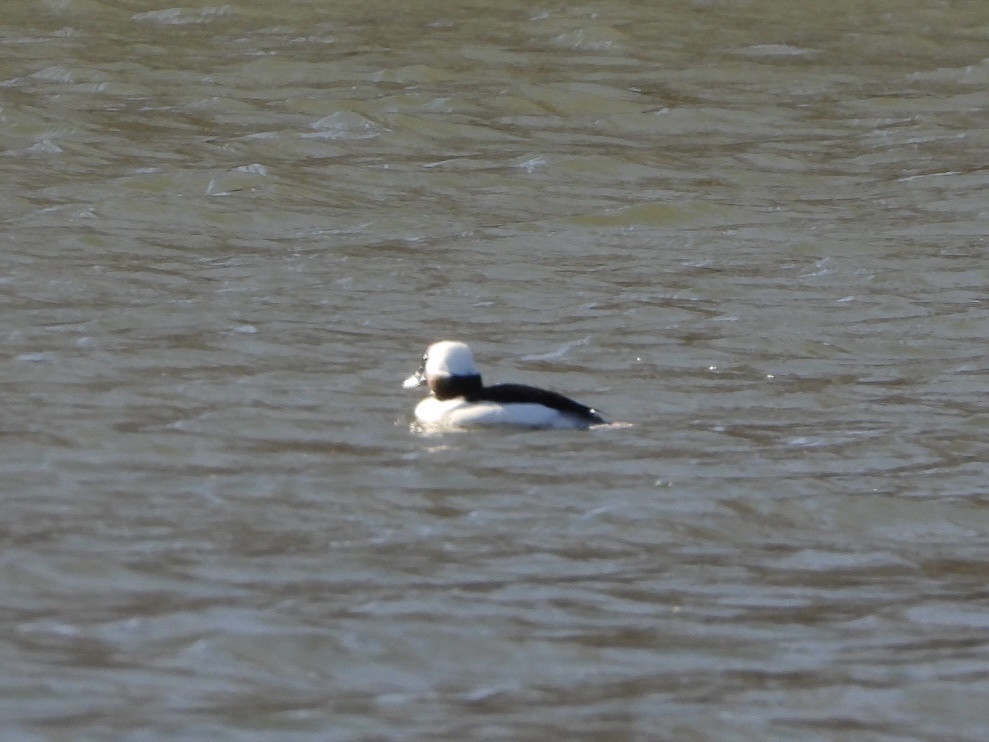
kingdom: Animalia
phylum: Chordata
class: Aves
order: Anseriformes
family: Anatidae
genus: Bucephala
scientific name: Bucephala albeola
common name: Bufflehead
